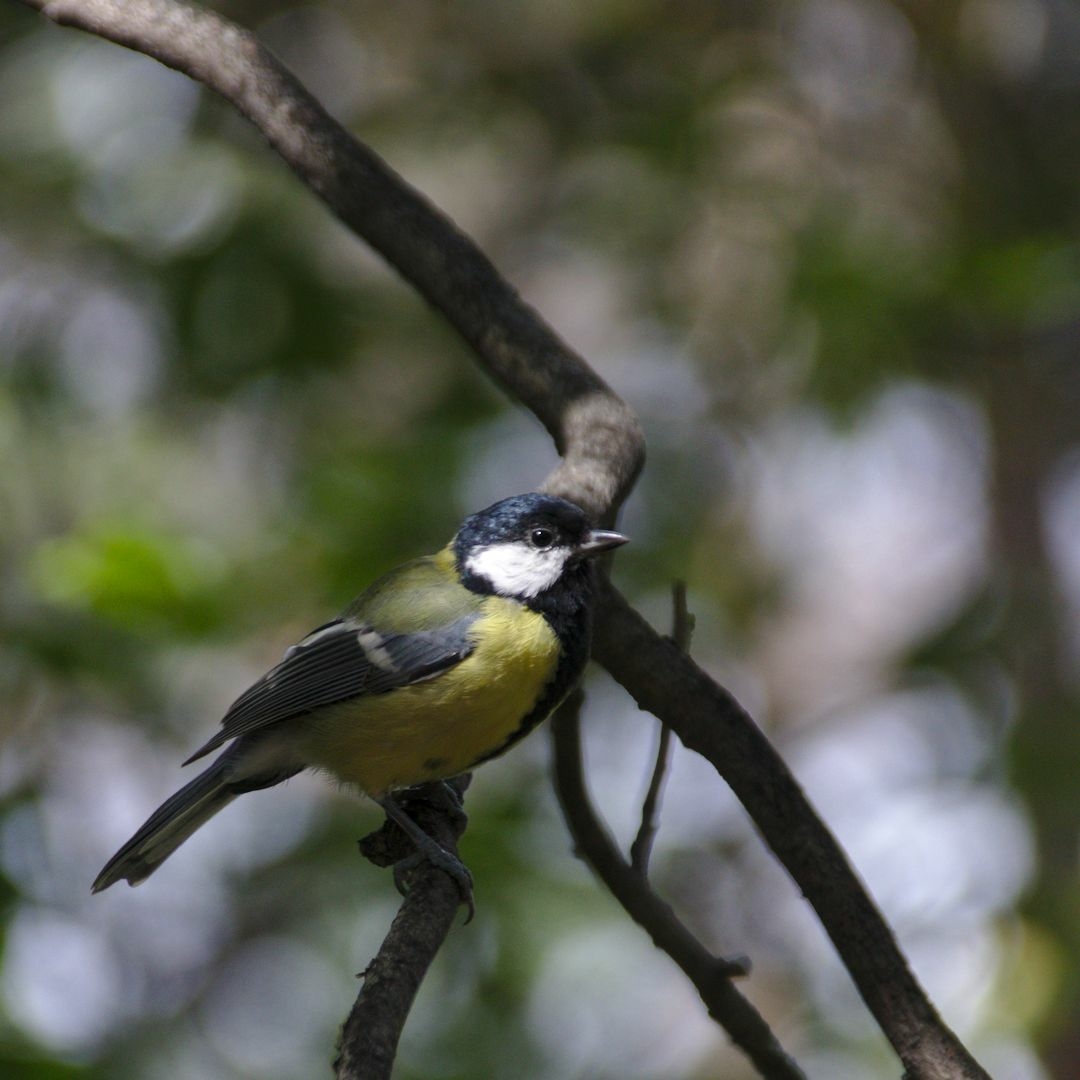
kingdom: Animalia
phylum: Chordata
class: Aves
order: Passeriformes
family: Paridae
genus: Parus
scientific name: Parus major
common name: Great tit
